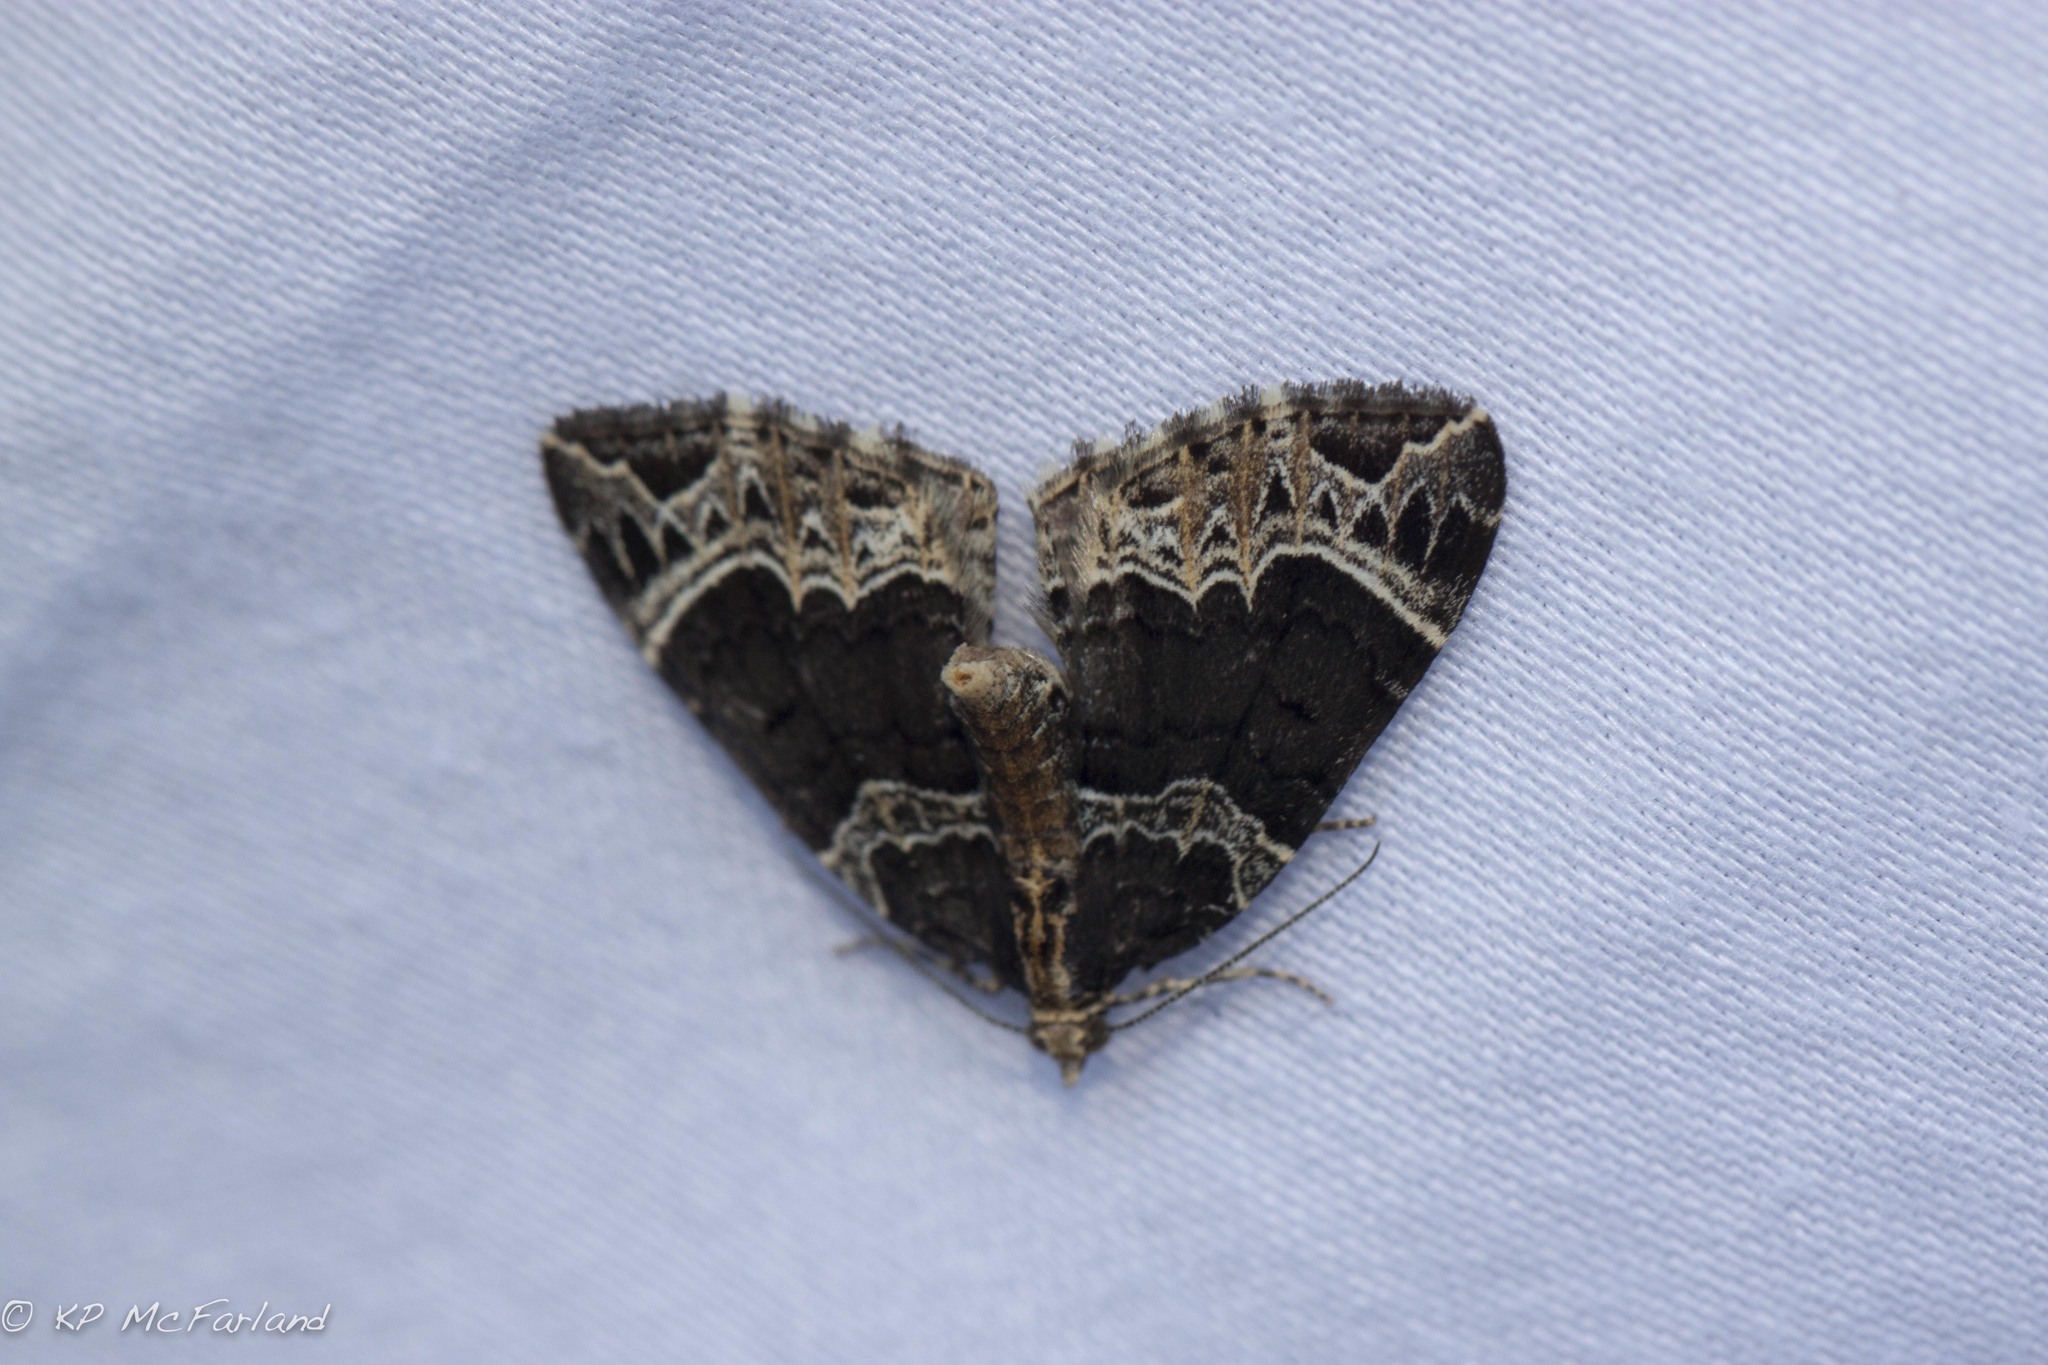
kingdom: Animalia
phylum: Arthropoda
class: Insecta
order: Lepidoptera
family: Geometridae
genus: Ecliptopera
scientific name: Ecliptopera silaceata
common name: Small phoenix
